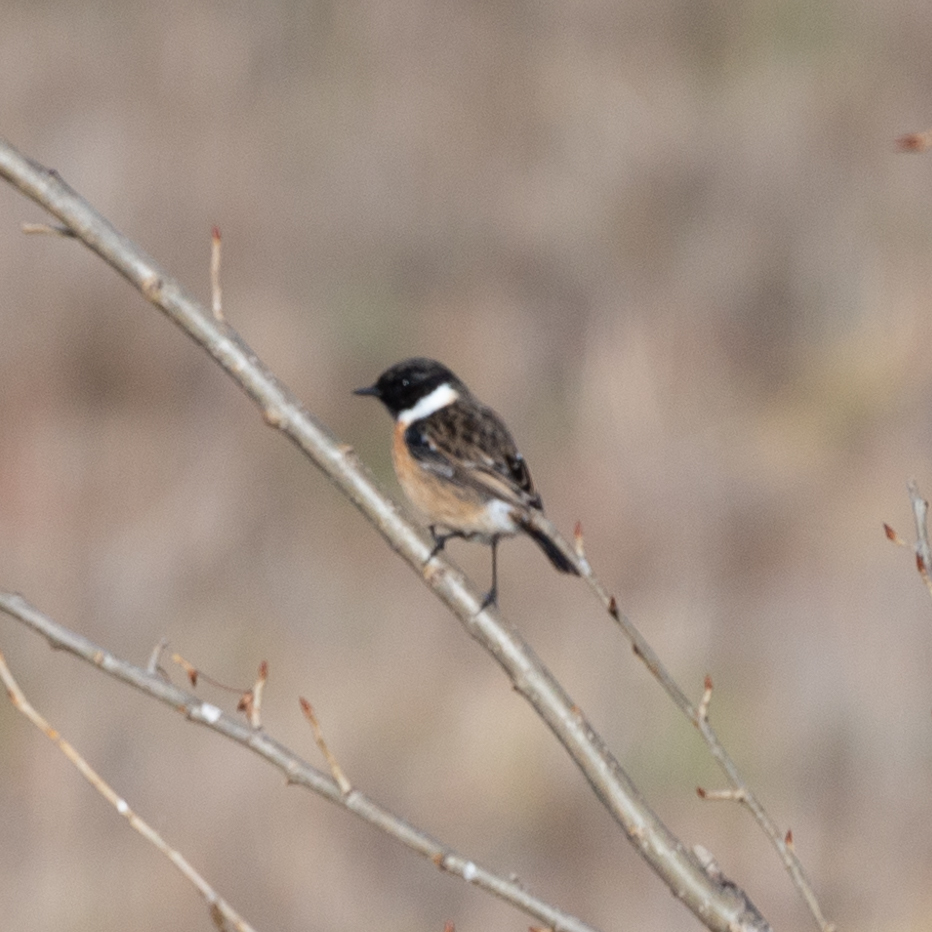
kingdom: Animalia
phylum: Chordata
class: Aves
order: Passeriformes
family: Muscicapidae
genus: Saxicola
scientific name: Saxicola rubicola
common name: European stonechat
